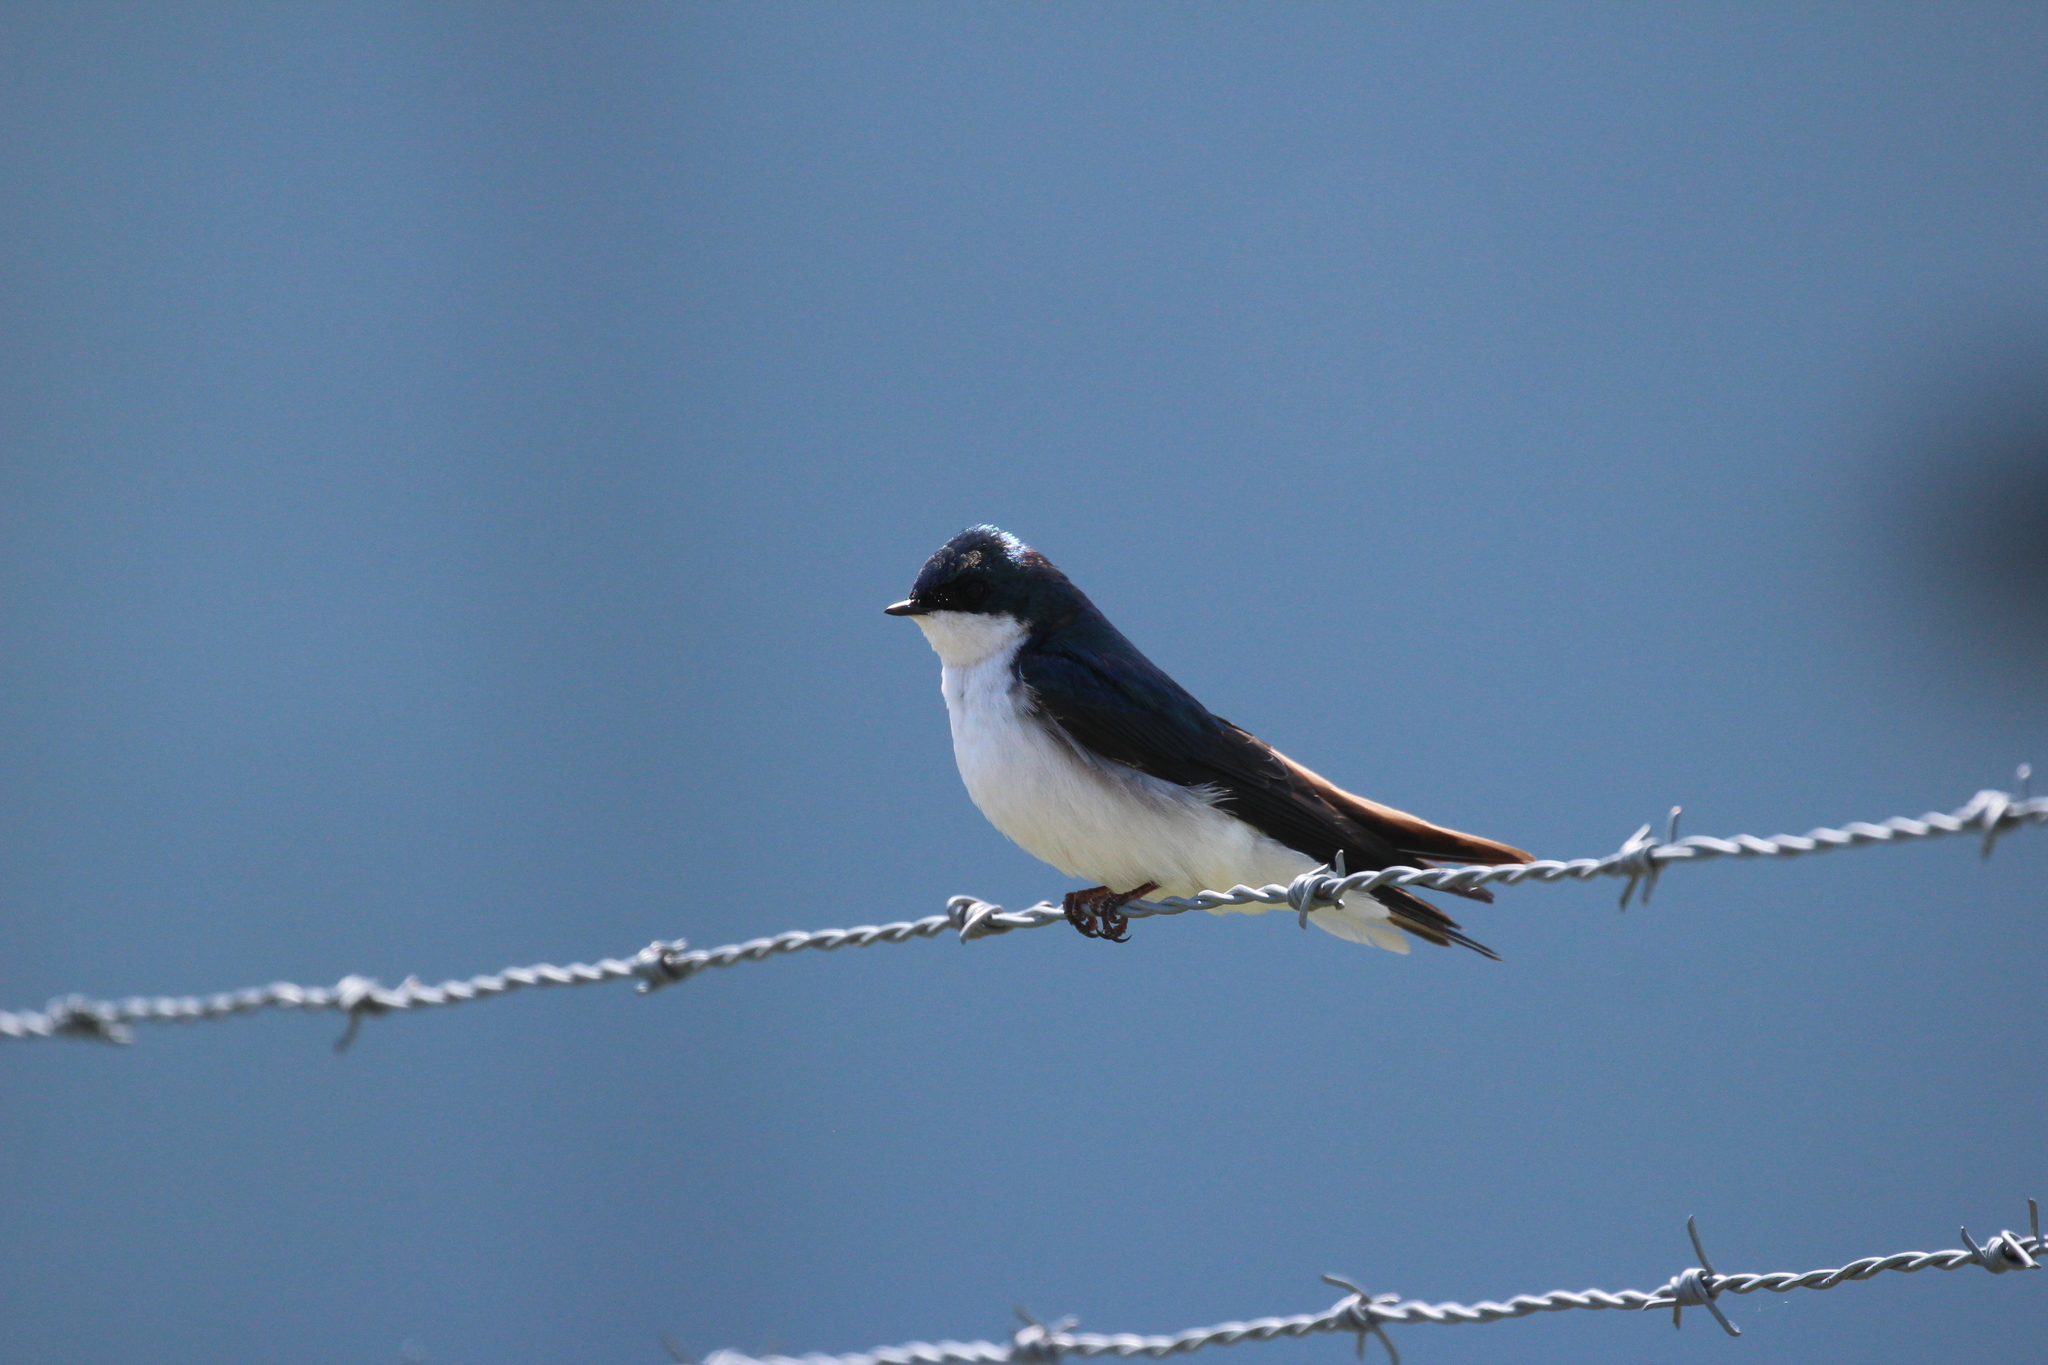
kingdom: Animalia
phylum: Chordata
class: Aves
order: Passeriformes
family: Hirundinidae
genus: Tachycineta
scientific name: Tachycineta bicolor
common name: Tree swallow
